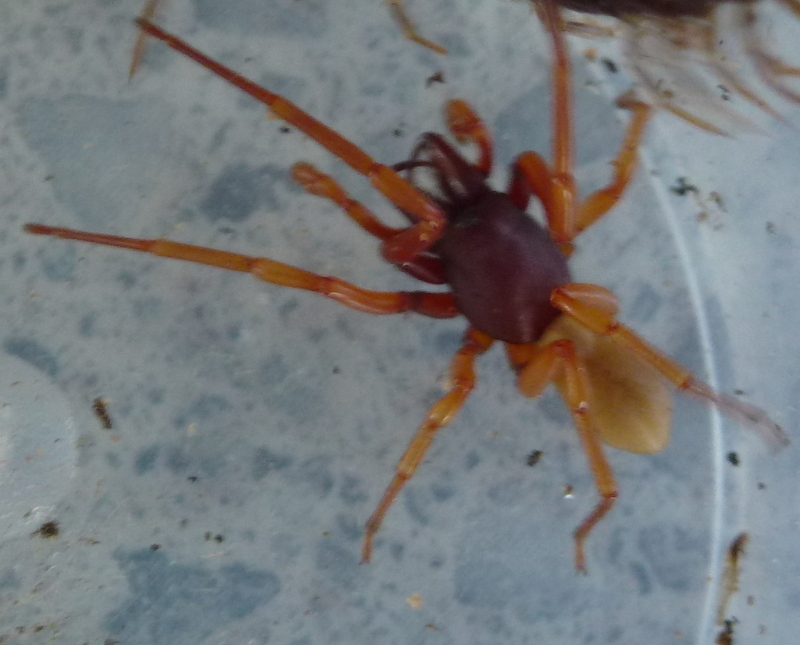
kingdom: Animalia
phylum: Arthropoda
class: Arachnida
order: Araneae
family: Dysderidae
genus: Dysdera
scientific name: Dysdera crocata
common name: Woodlouse spider
